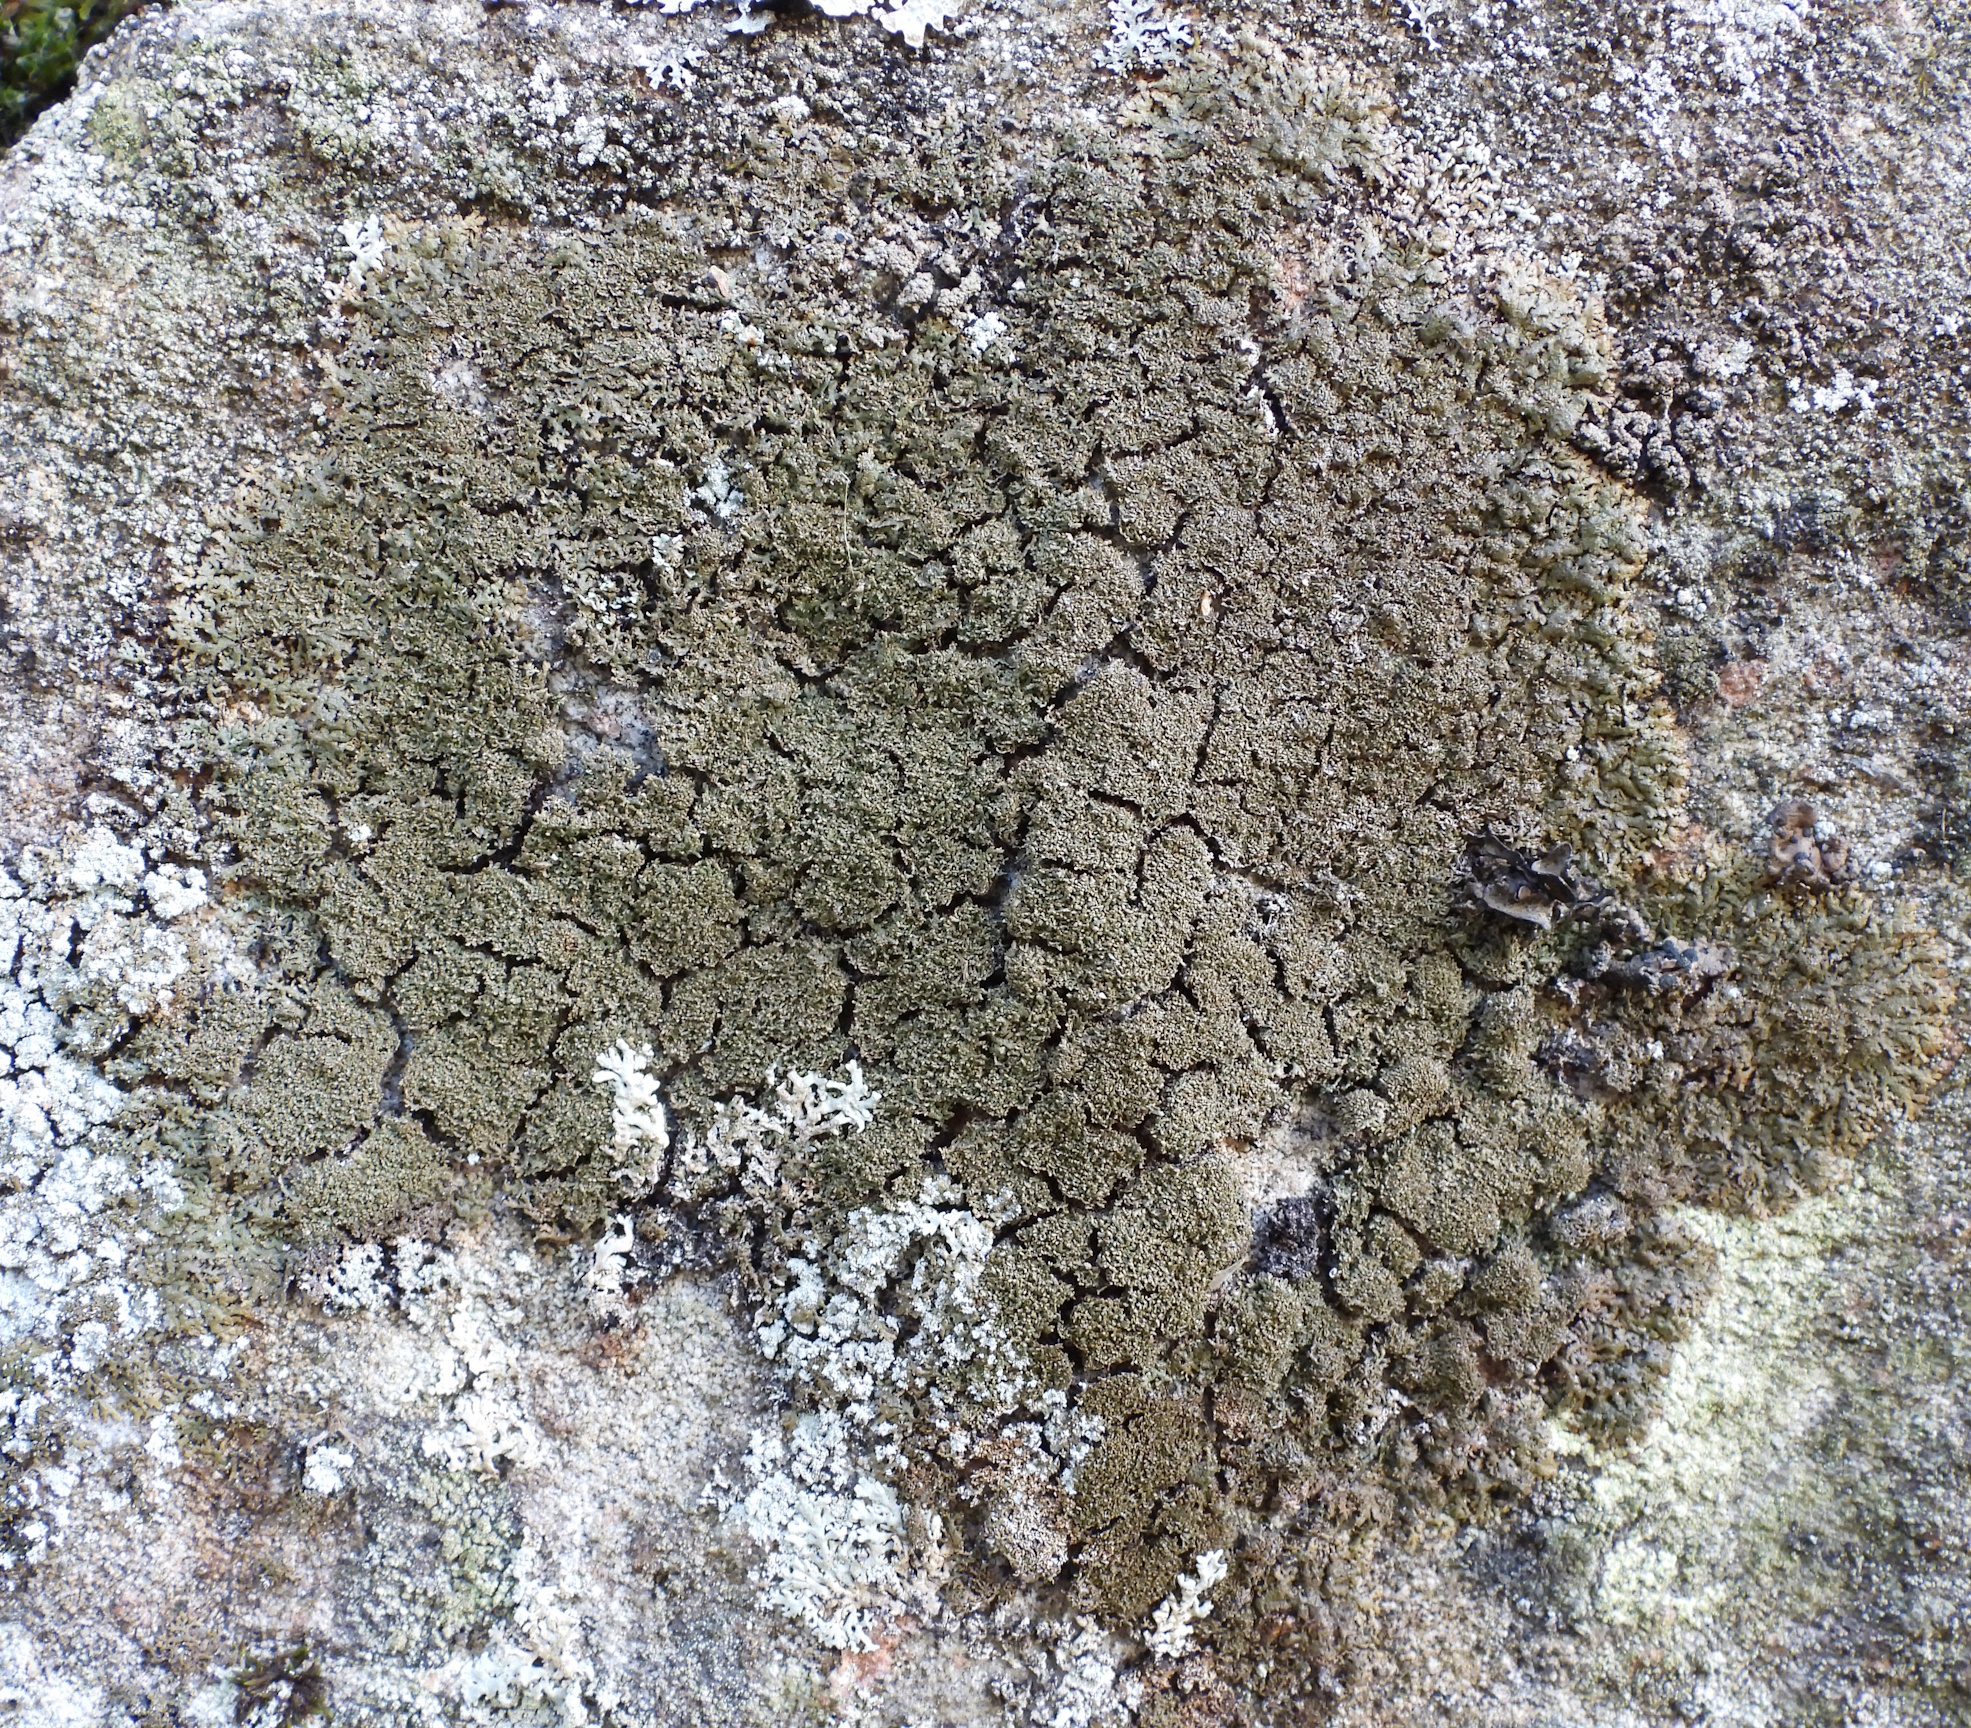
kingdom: Fungi
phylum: Ascomycota
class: Lecanoromycetes
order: Lecanorales
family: Parmeliaceae
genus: Montanelia
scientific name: Montanelia panniformis
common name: Shingled camouflage lichen
